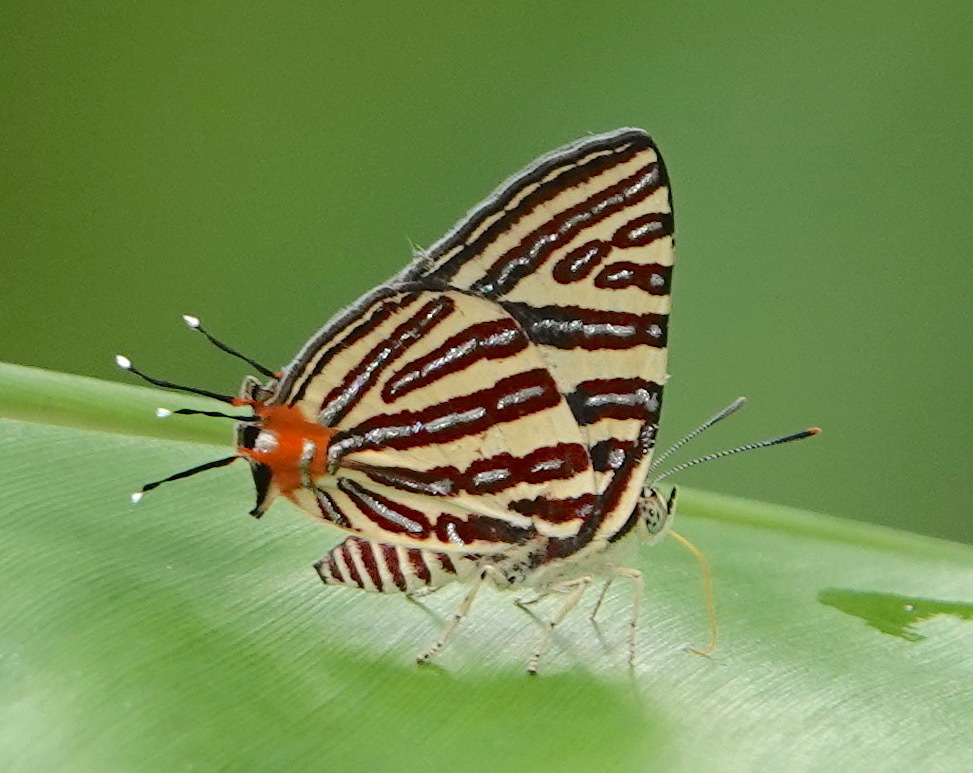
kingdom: Animalia
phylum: Arthropoda
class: Insecta
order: Lepidoptera
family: Lycaenidae
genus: Cigaritis
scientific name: Cigaritis lohita
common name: Long-banded silverline
